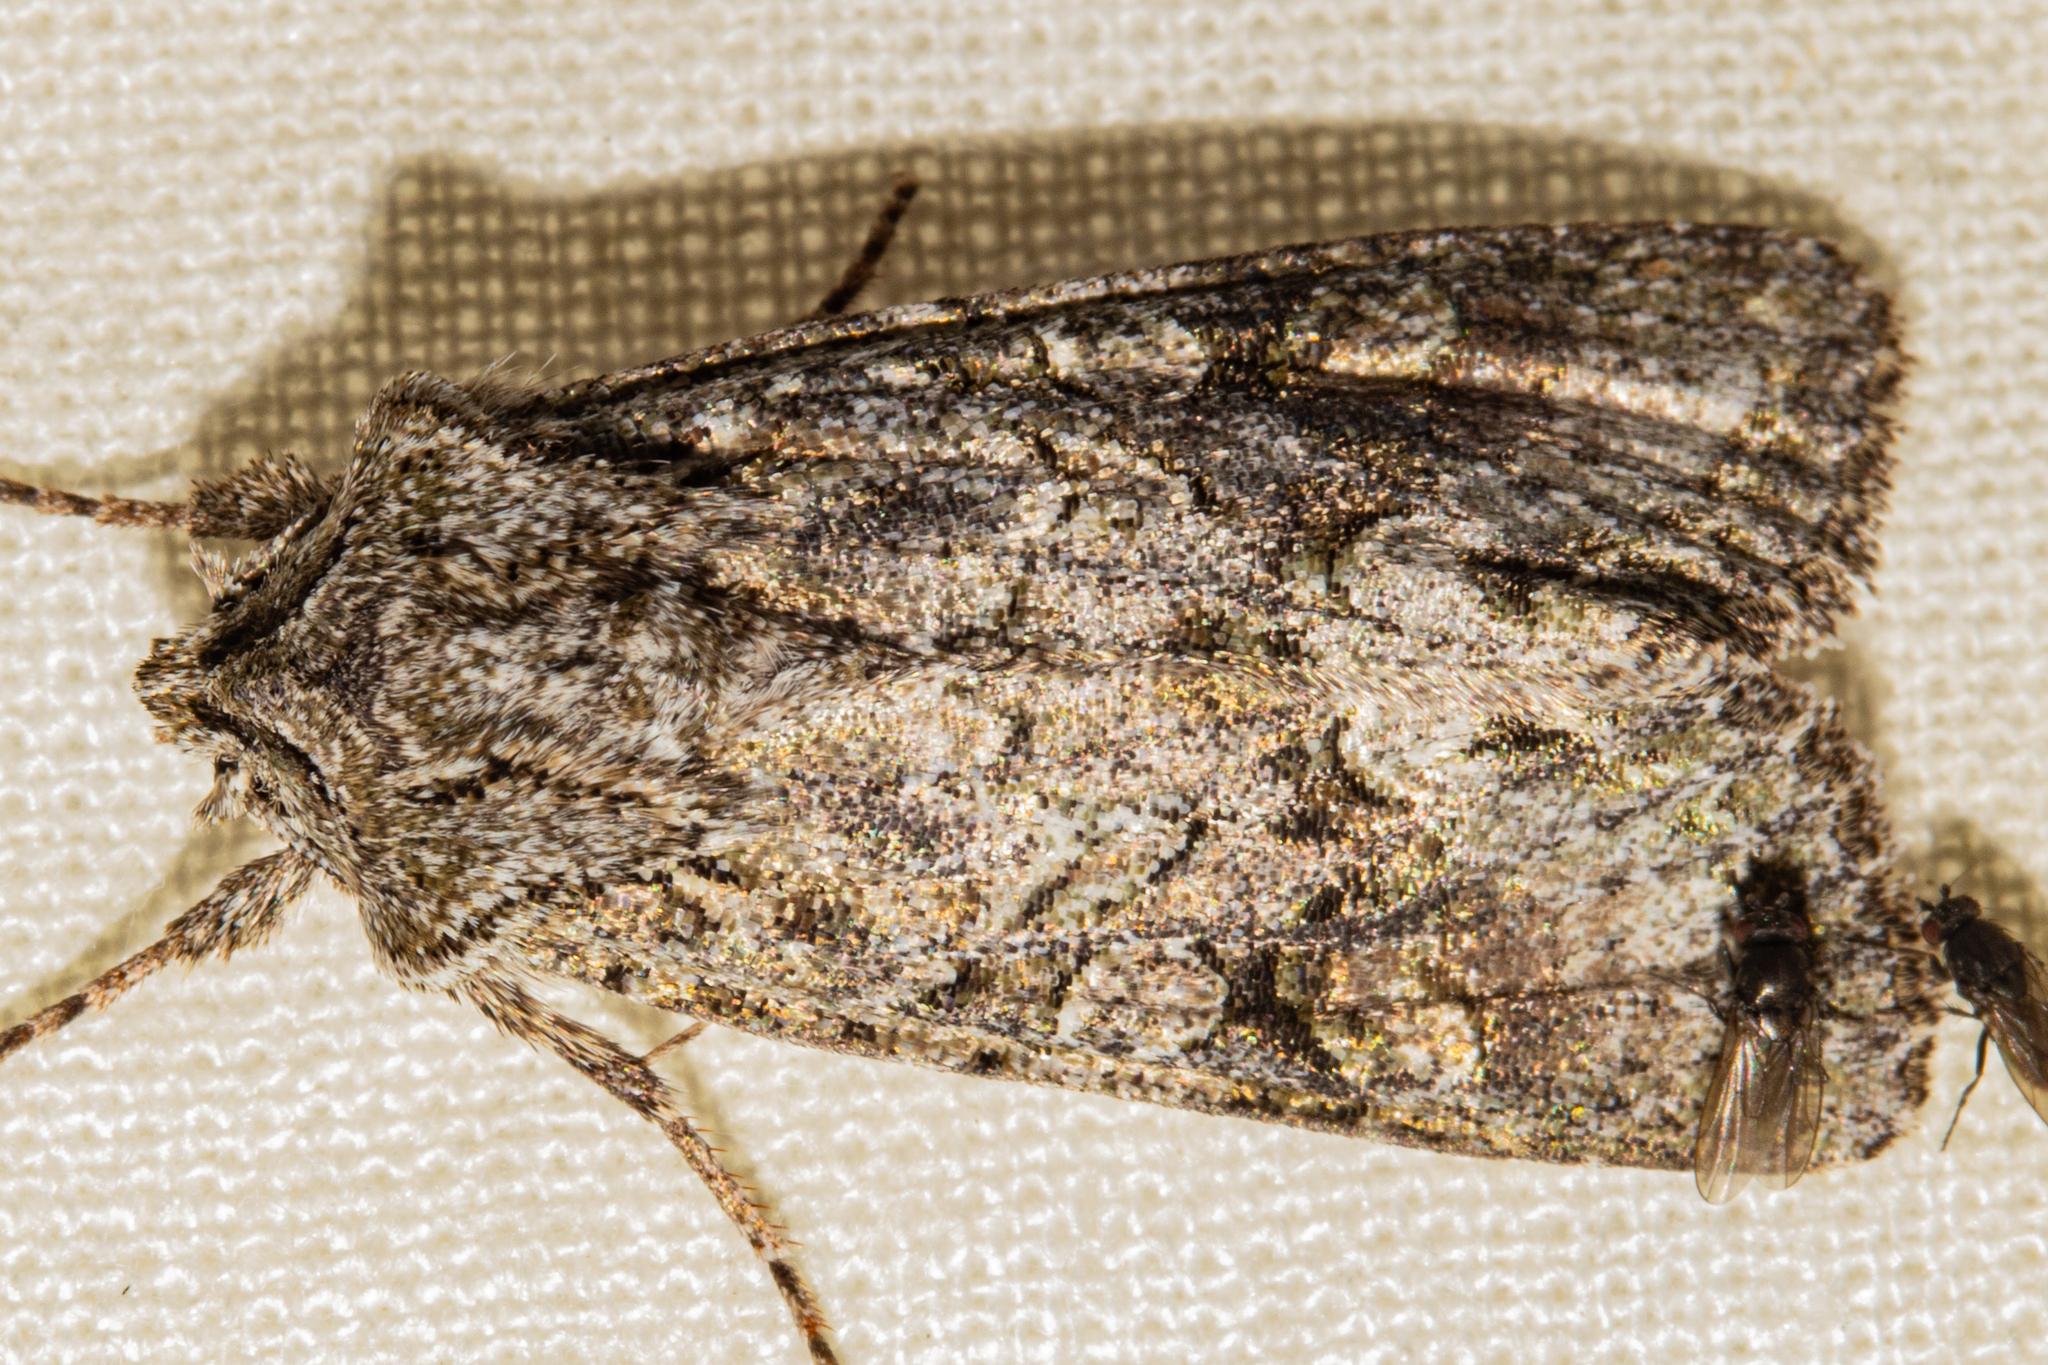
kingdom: Animalia
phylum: Arthropoda
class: Insecta
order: Lepidoptera
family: Noctuidae
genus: Ichneutica
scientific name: Ichneutica mutans
